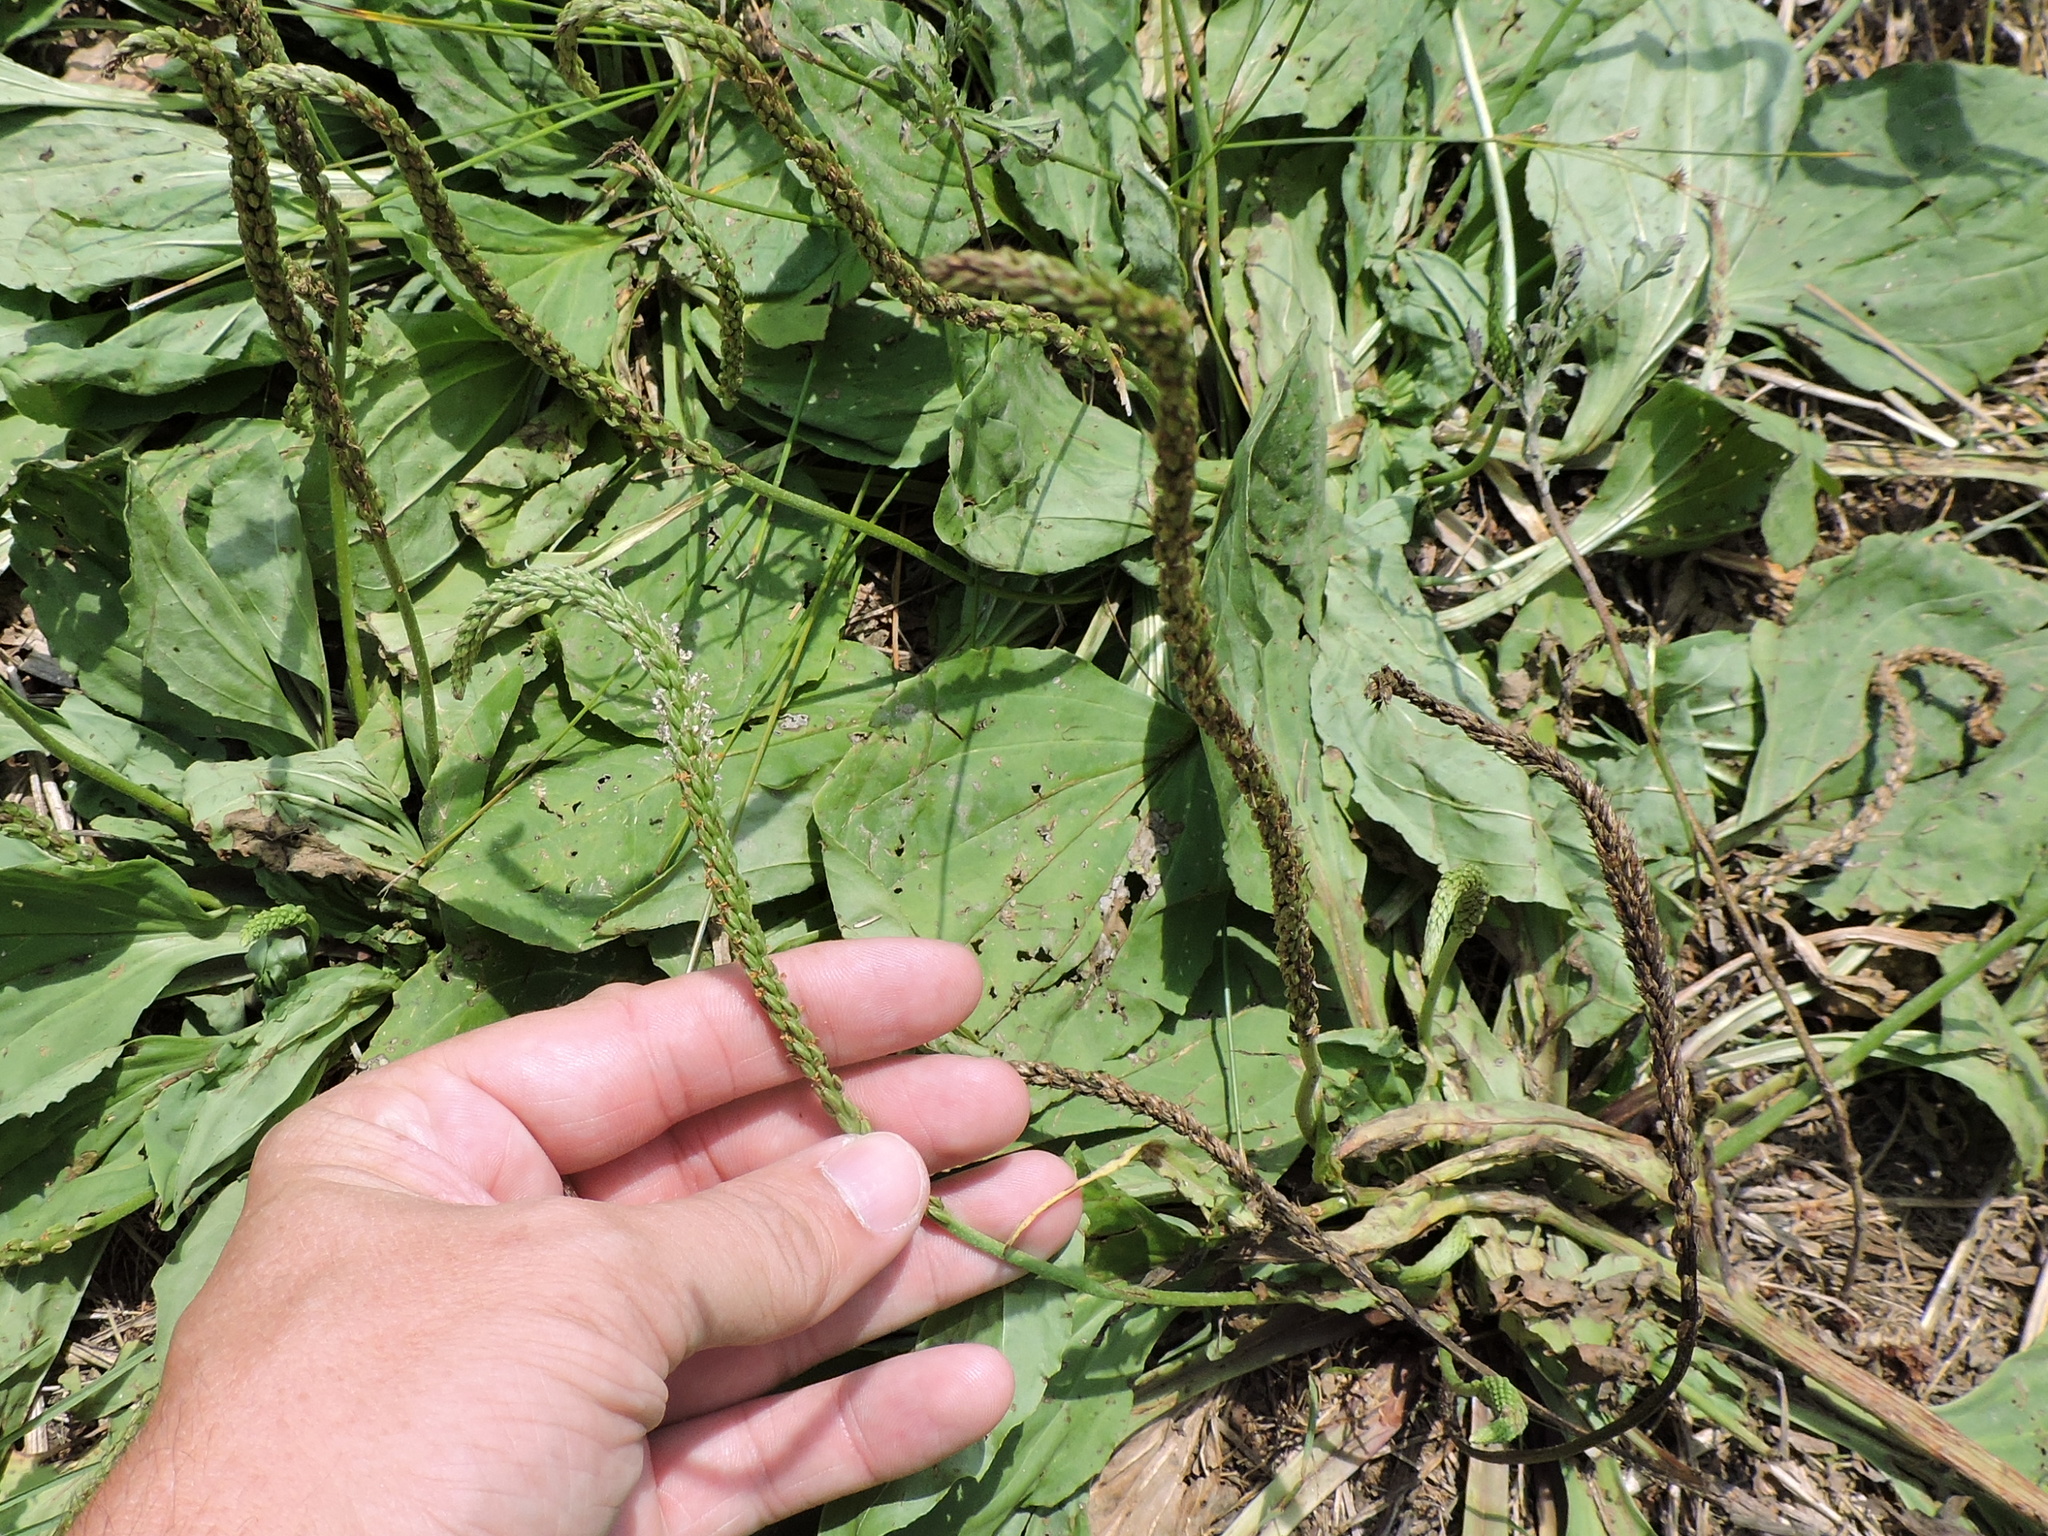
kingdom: Plantae
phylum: Tracheophyta
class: Magnoliopsida
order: Lamiales
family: Plantaginaceae
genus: Plantago
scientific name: Plantago major
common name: Common plantain
